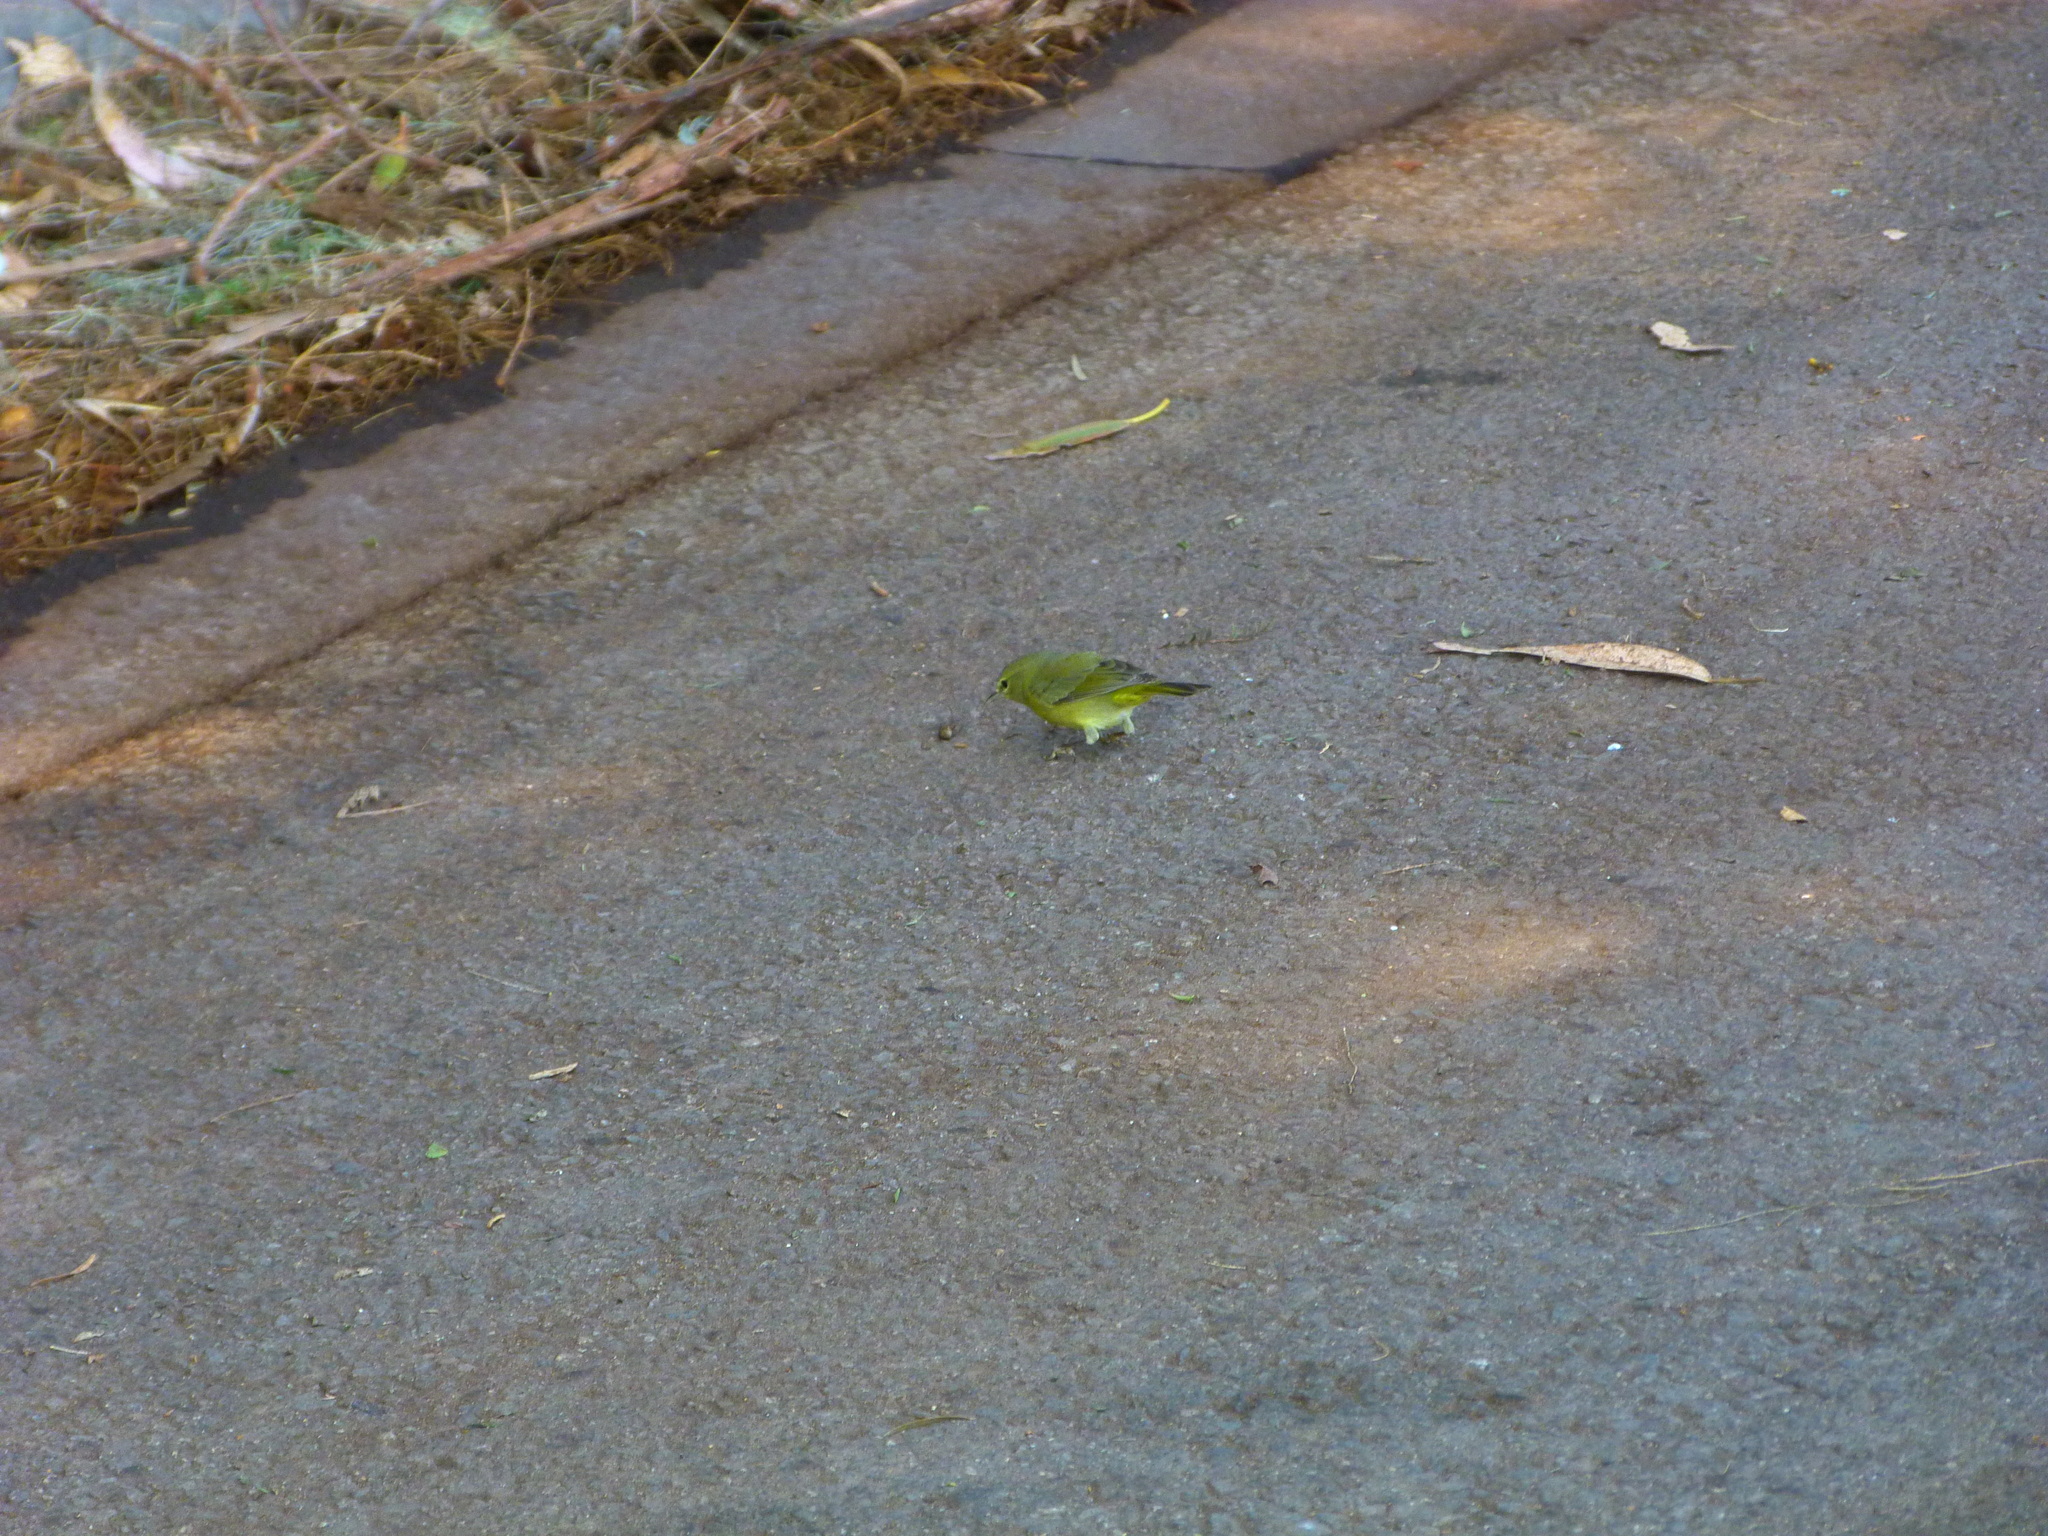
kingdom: Animalia
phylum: Chordata
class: Aves
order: Passeriformes
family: Parulidae
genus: Leiothlypis
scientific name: Leiothlypis celata
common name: Orange-crowned warbler
